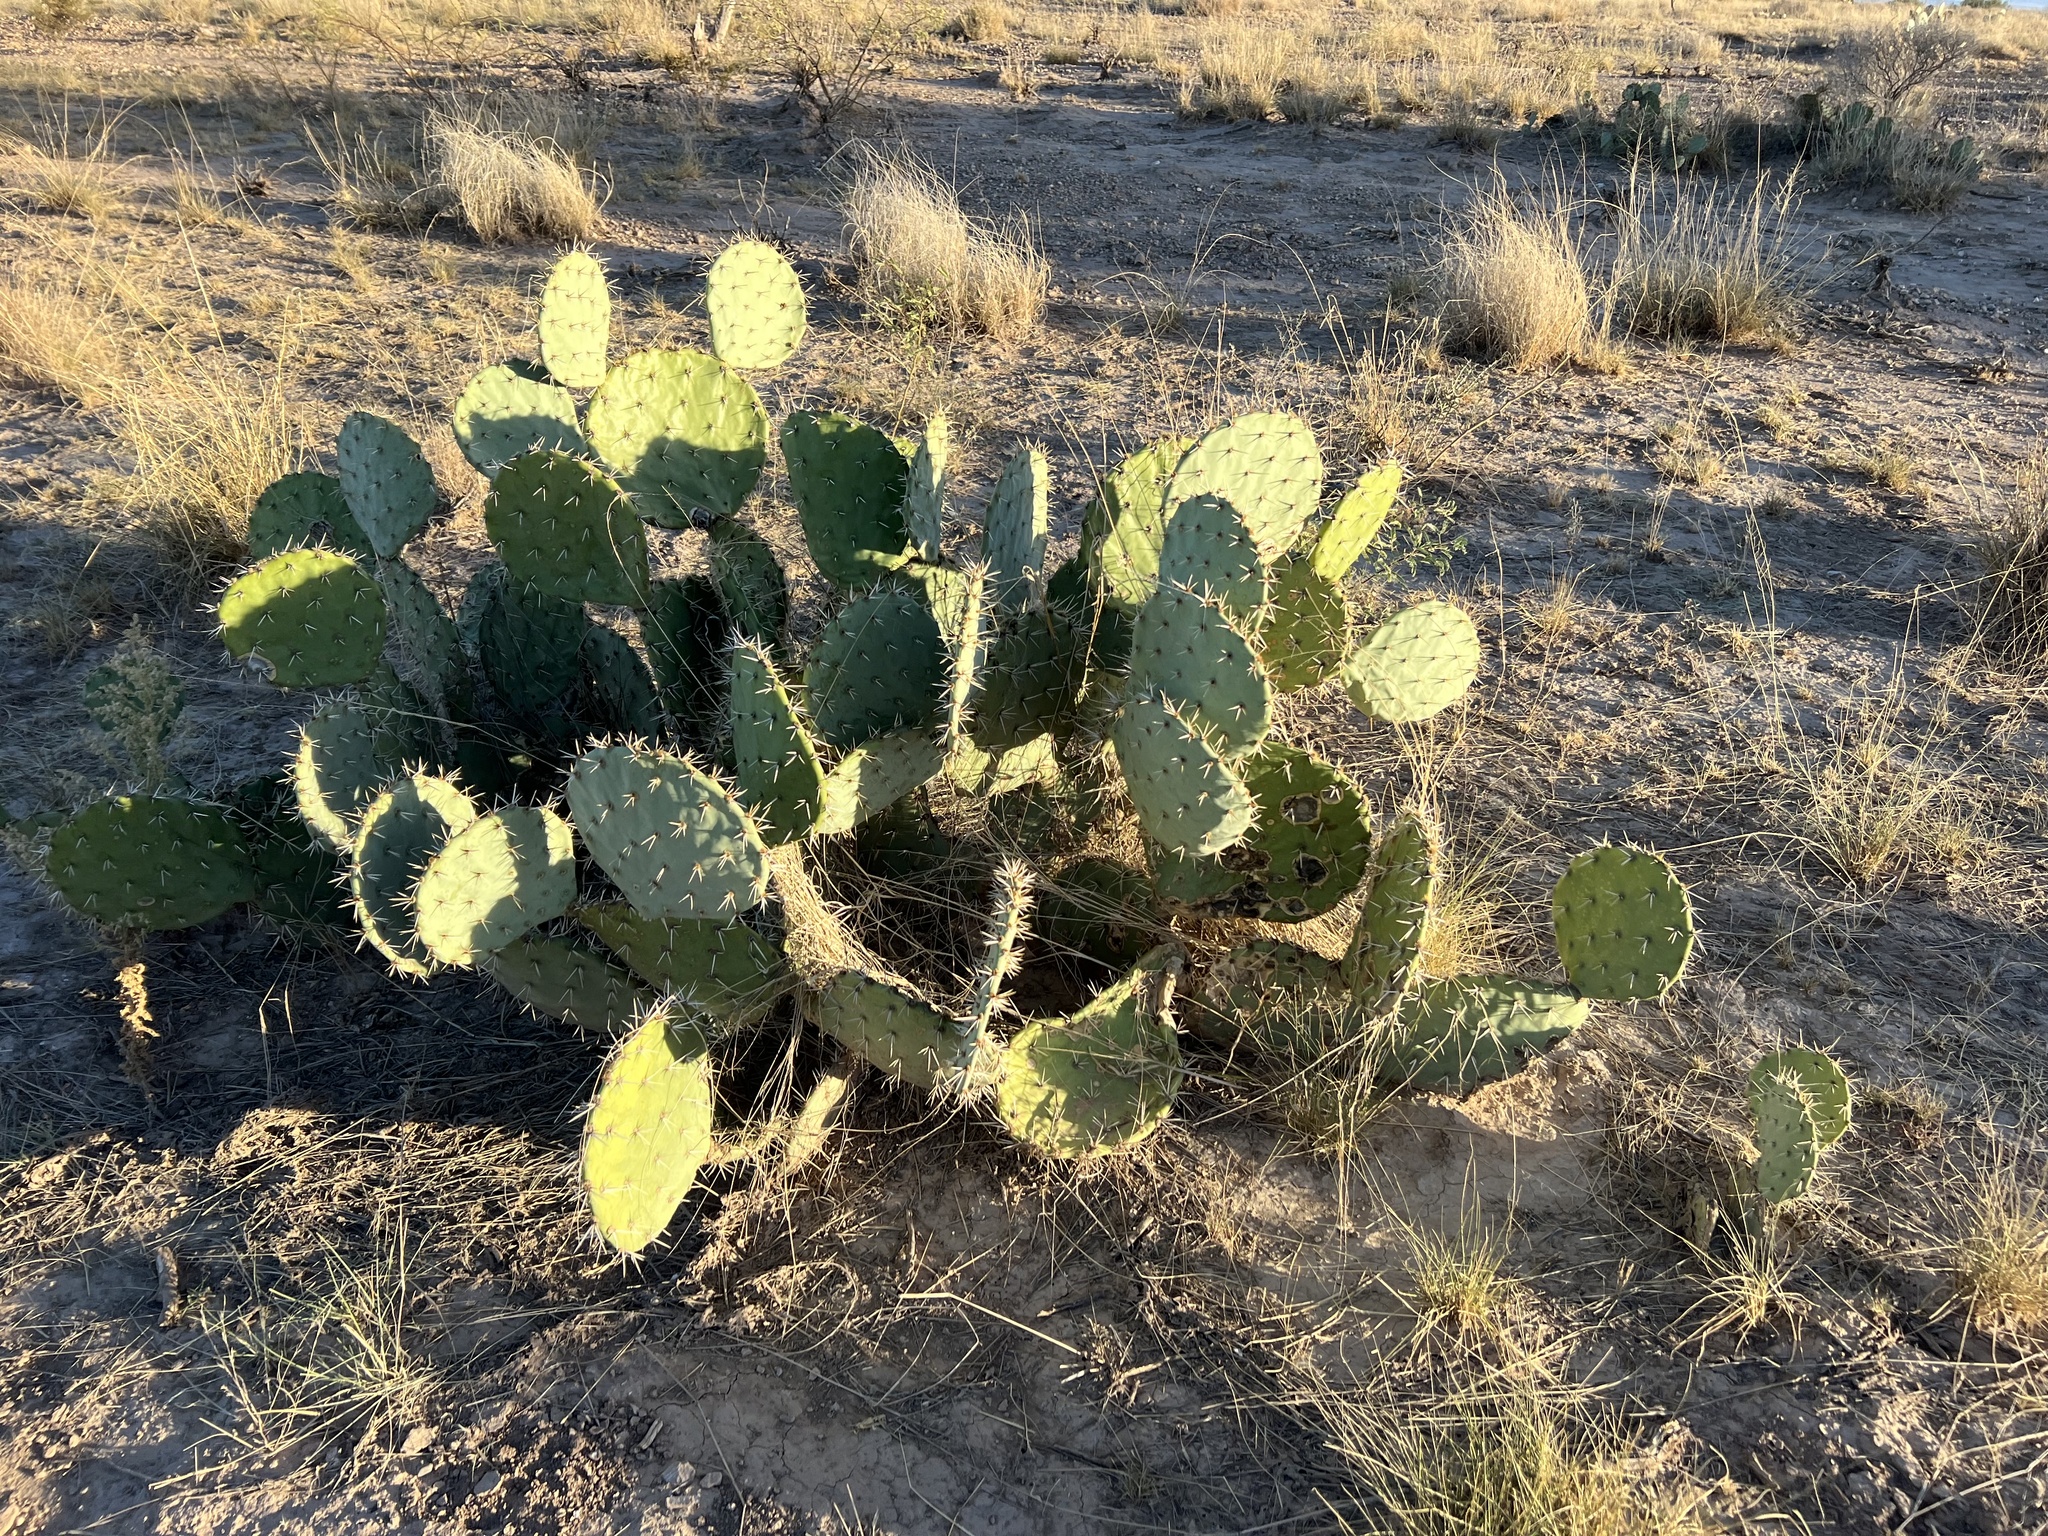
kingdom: Plantae
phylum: Tracheophyta
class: Magnoliopsida
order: Caryophyllales
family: Cactaceae
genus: Opuntia
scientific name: Opuntia engelmannii
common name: Cactus-apple
